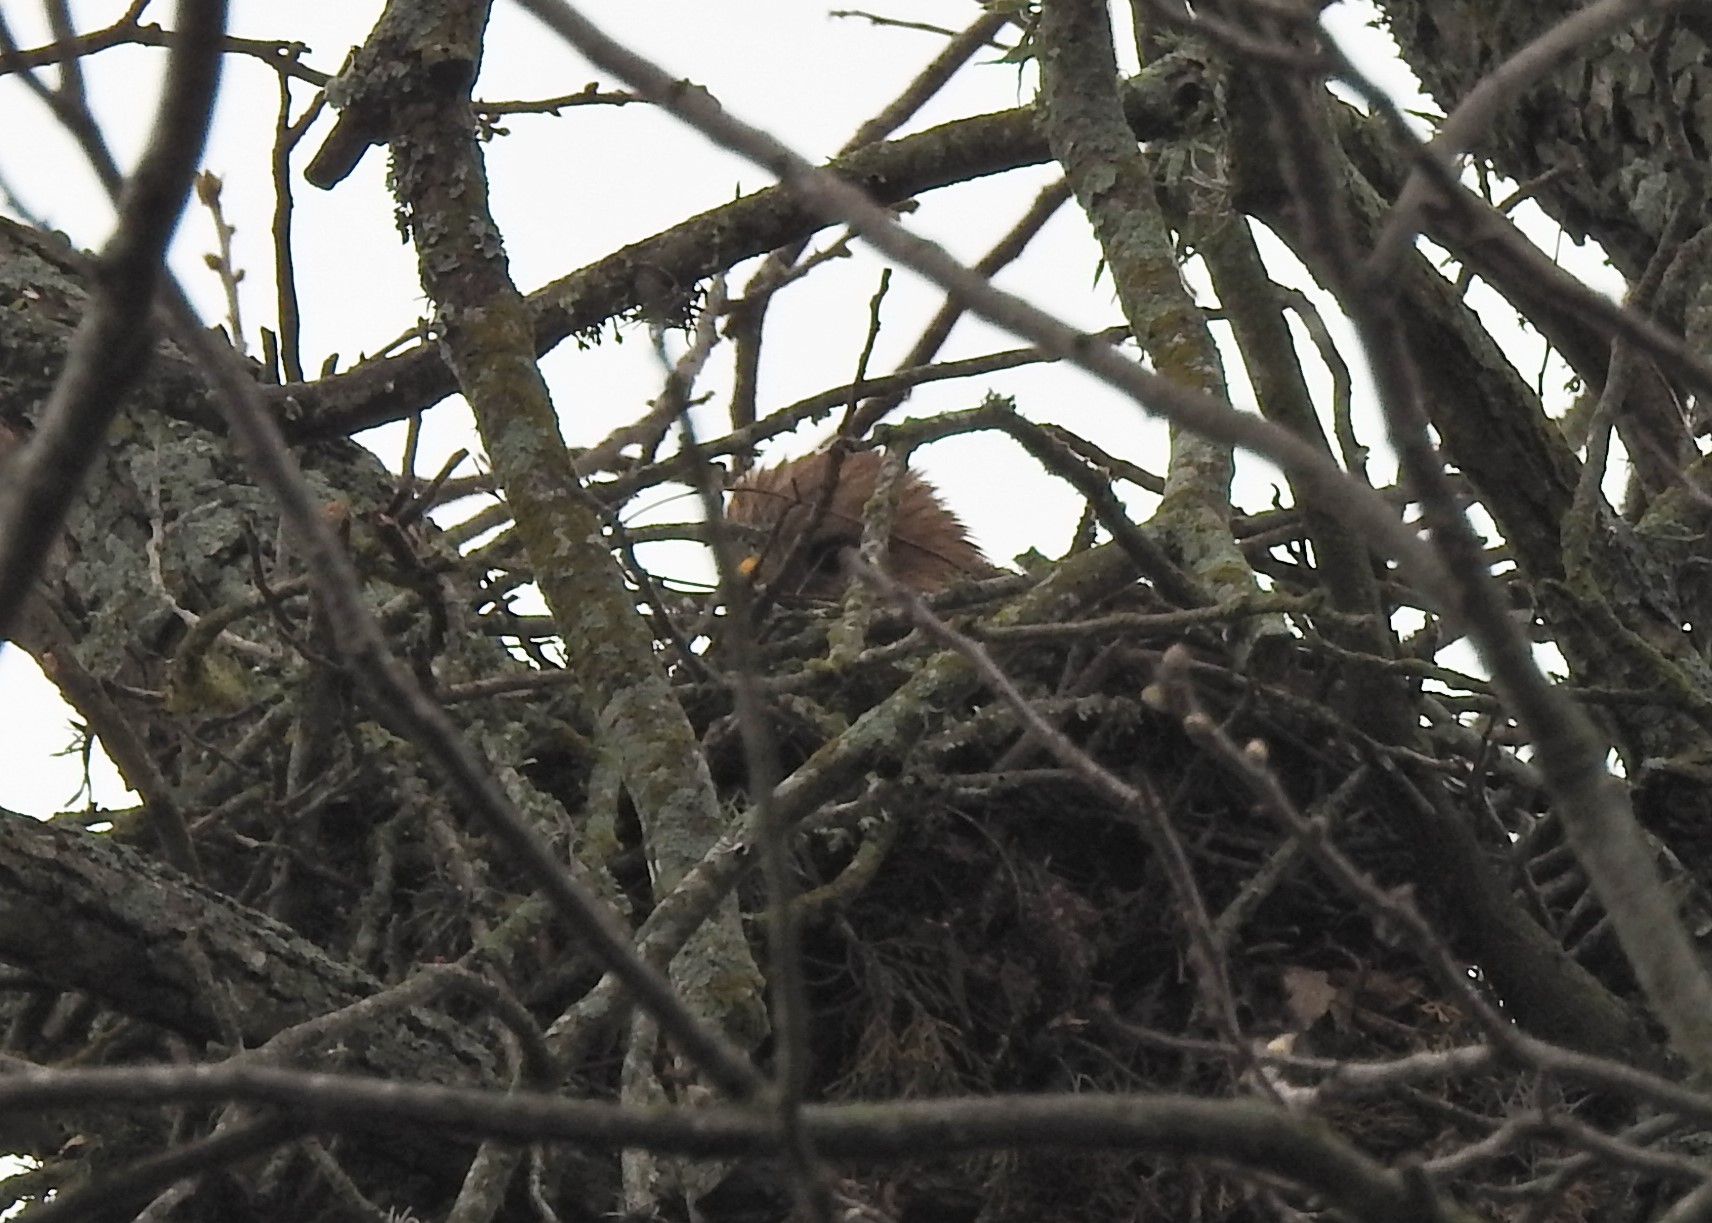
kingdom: Animalia
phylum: Chordata
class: Aves
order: Accipitriformes
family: Accipitridae
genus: Buteo
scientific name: Buteo lineatus
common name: Red-shouldered hawk
